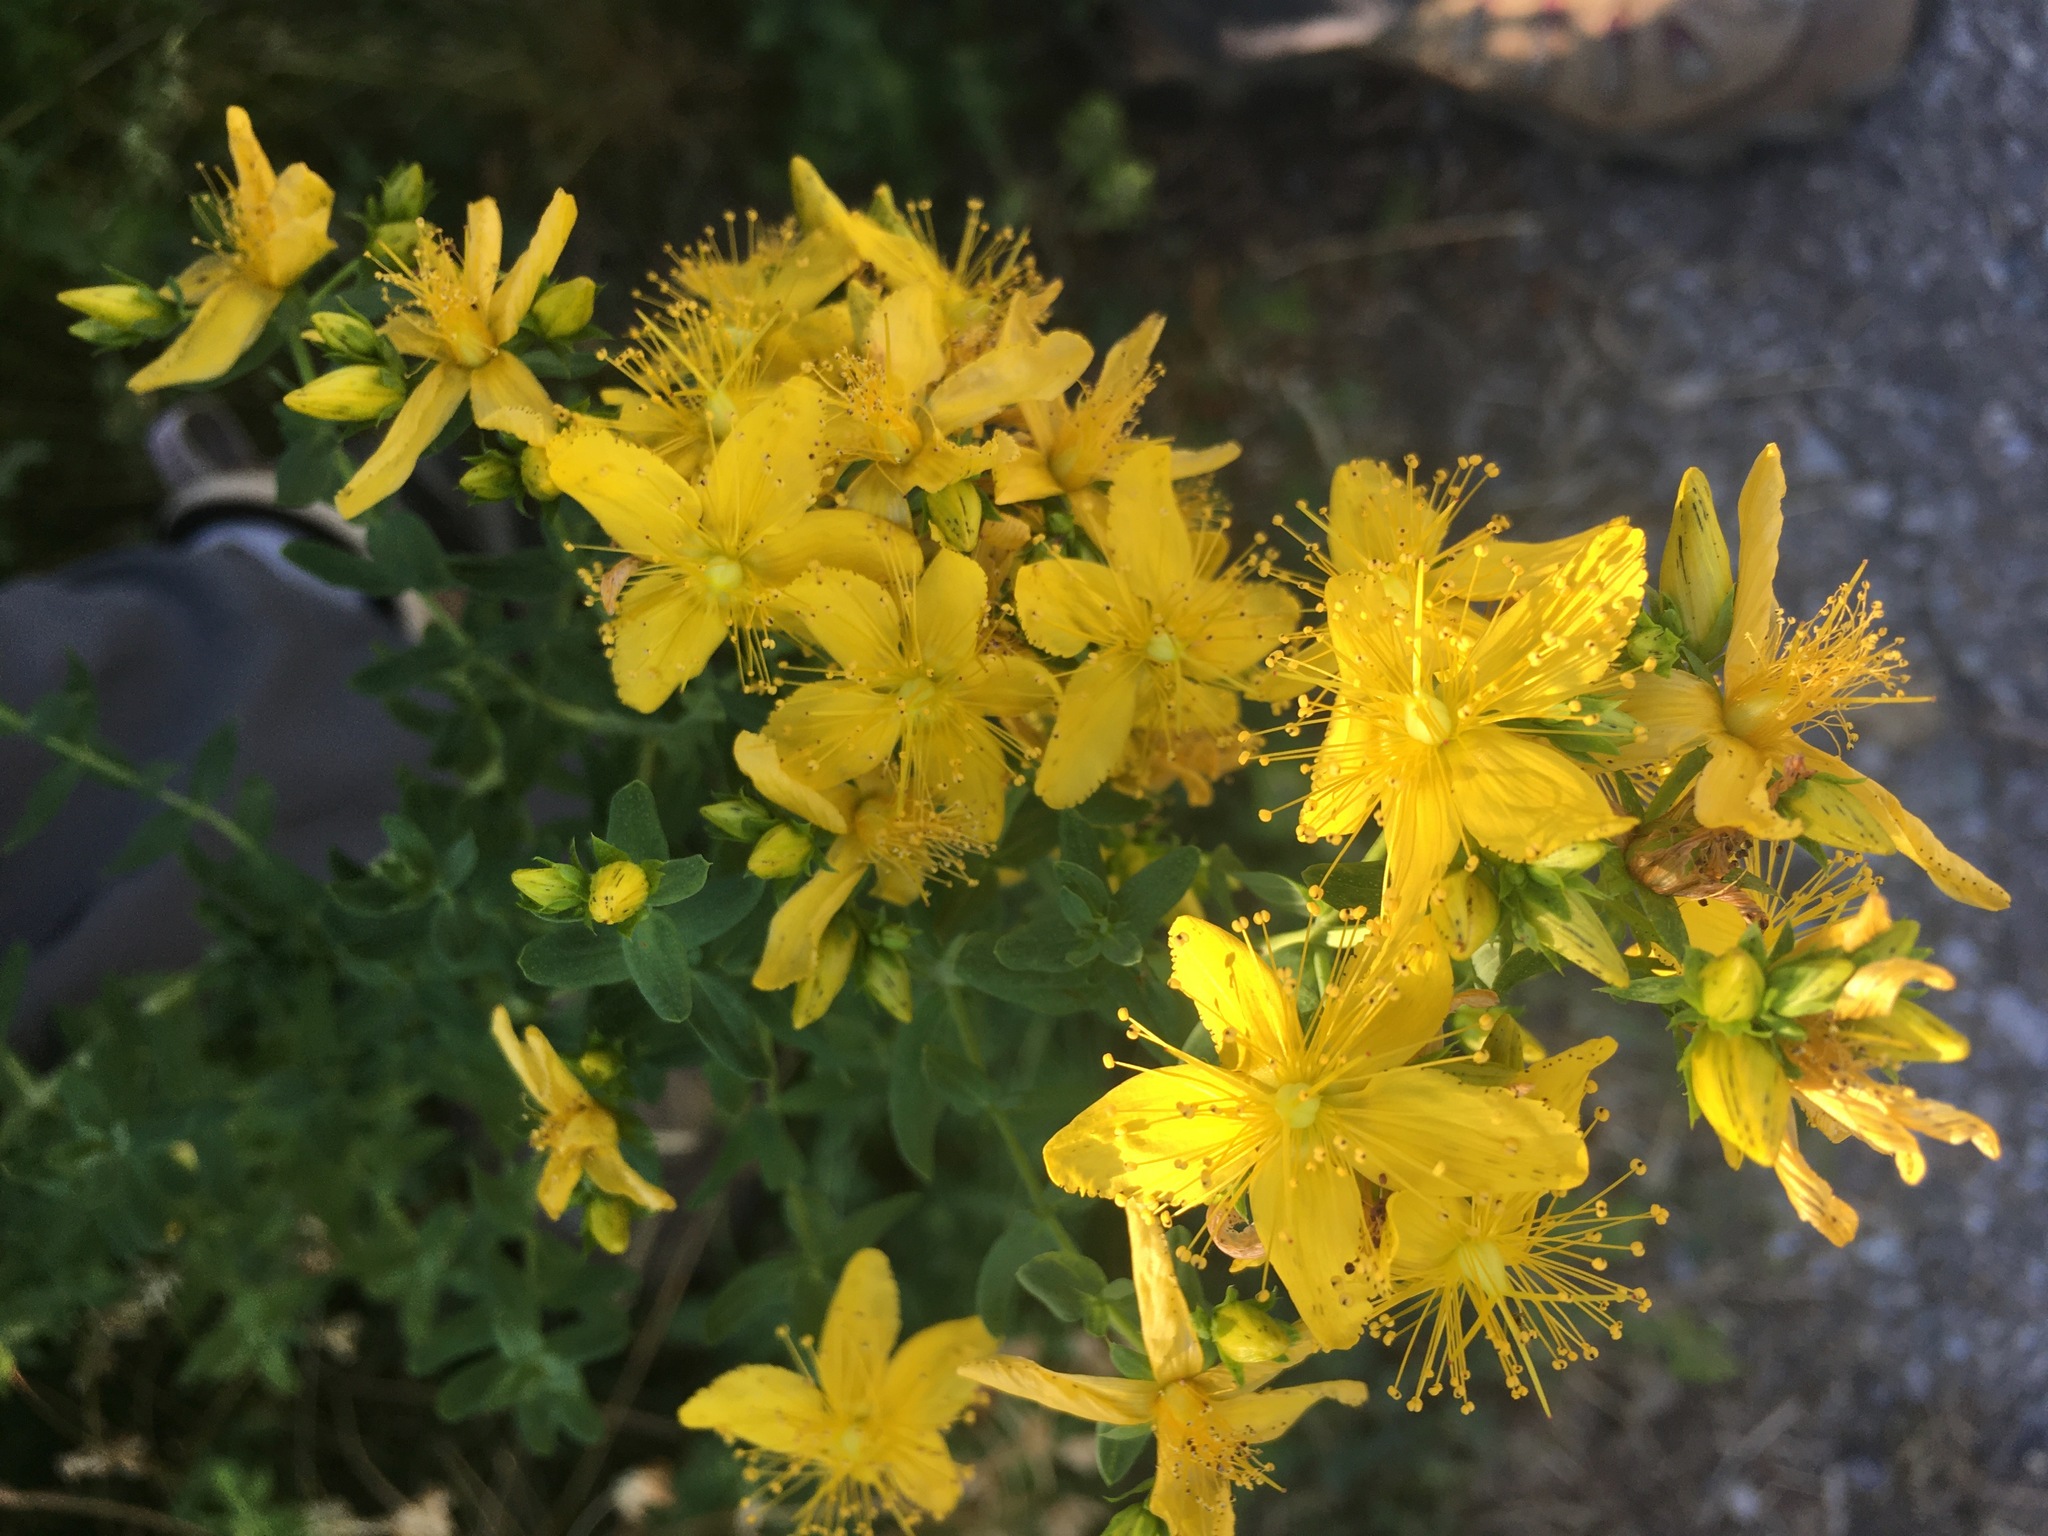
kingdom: Plantae
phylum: Tracheophyta
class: Magnoliopsida
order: Malpighiales
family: Hypericaceae
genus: Hypericum
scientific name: Hypericum perforatum
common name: Common st. johnswort
